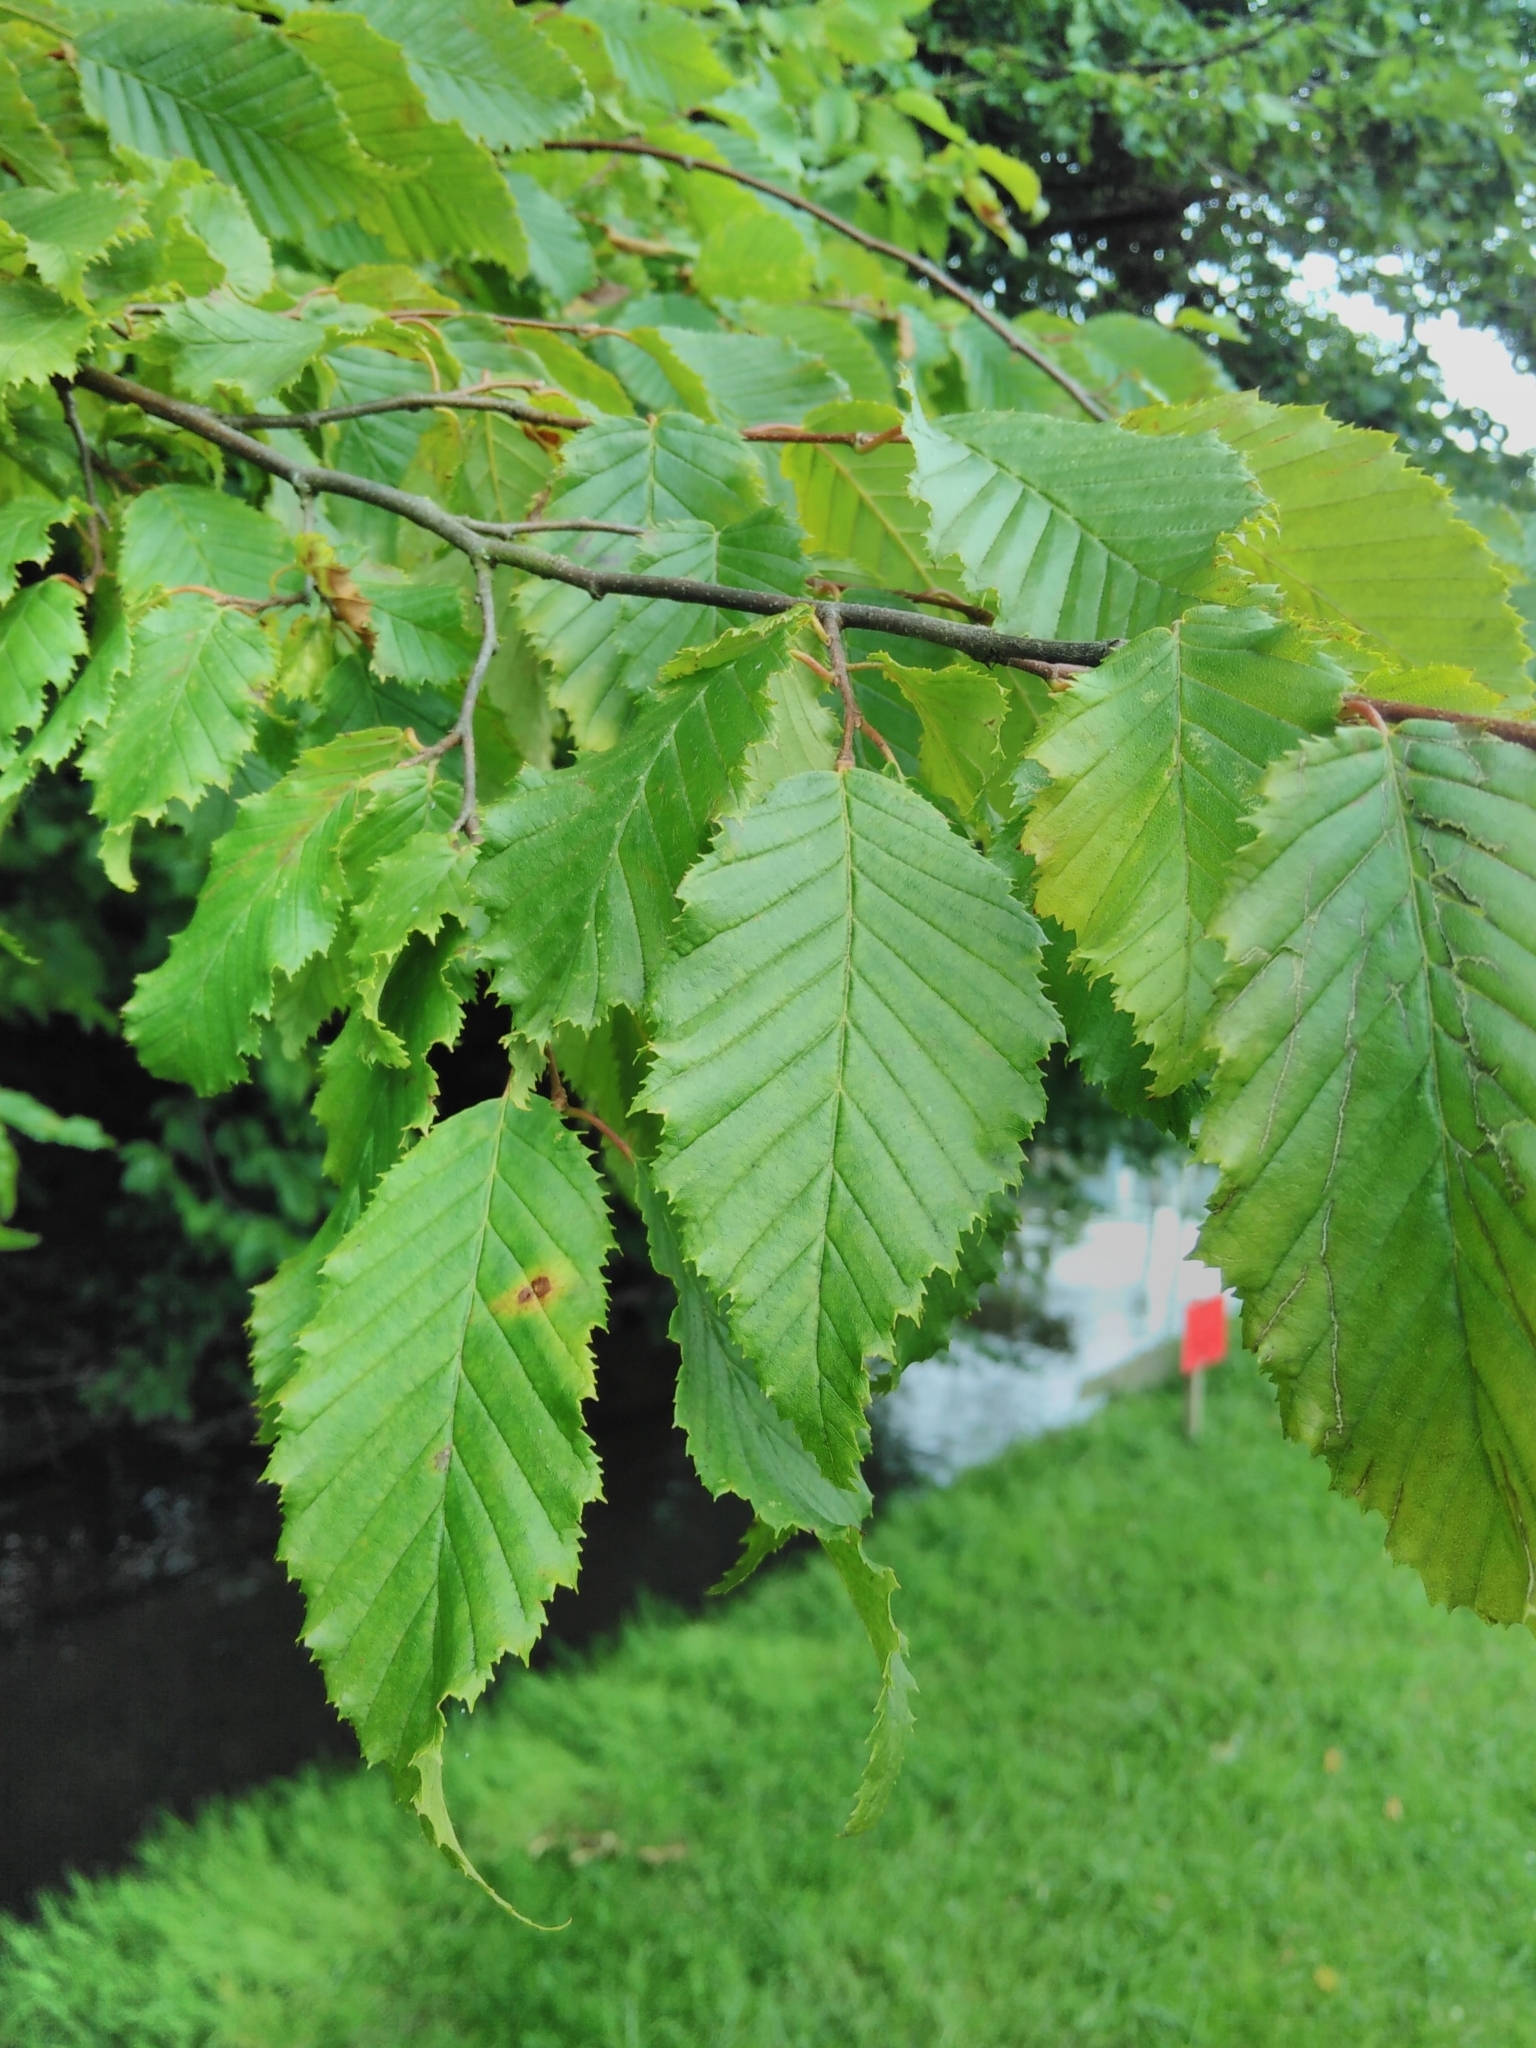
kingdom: Plantae
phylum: Tracheophyta
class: Magnoliopsida
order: Fagales
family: Betulaceae
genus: Carpinus
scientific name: Carpinus betulus
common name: Hornbeam
